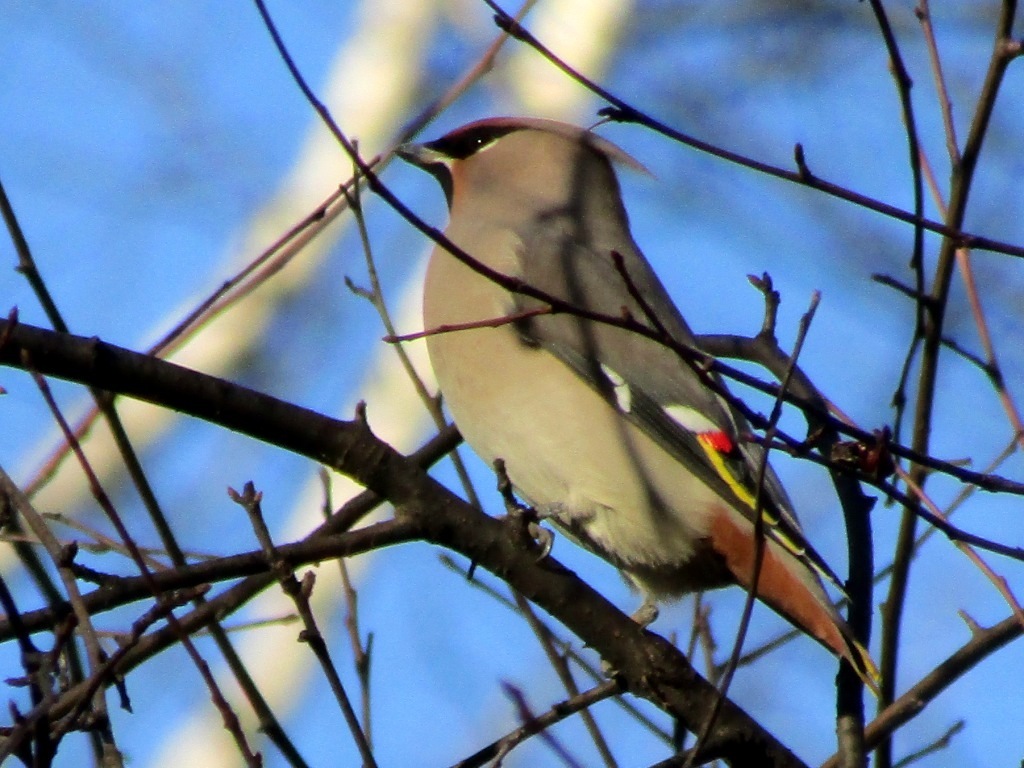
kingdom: Animalia
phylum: Chordata
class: Aves
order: Passeriformes
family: Bombycillidae
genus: Bombycilla
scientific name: Bombycilla garrulus
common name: Bohemian waxwing
